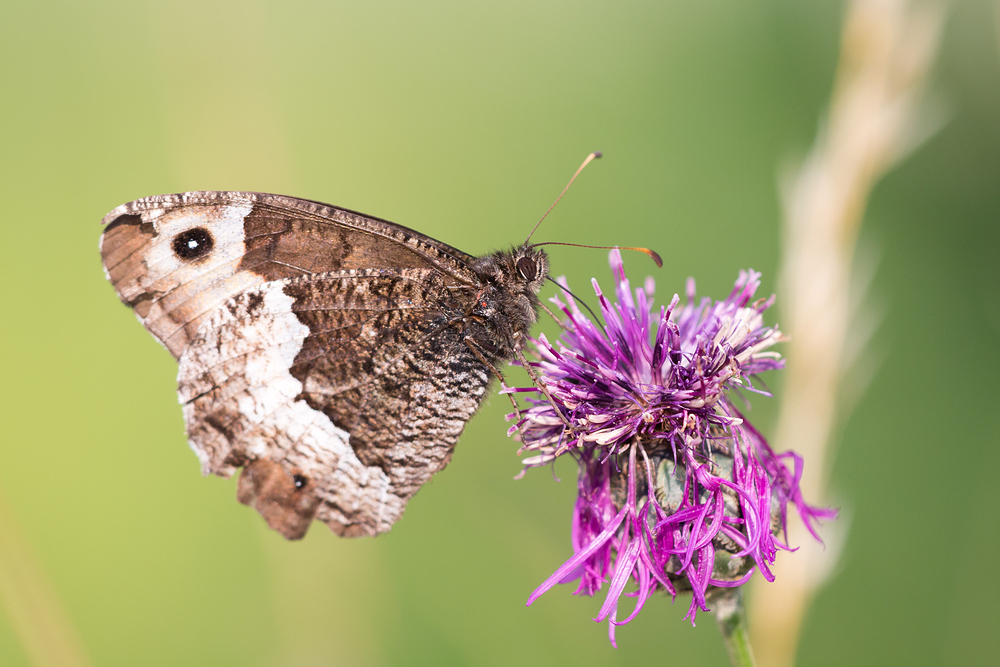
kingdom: Animalia
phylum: Arthropoda
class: Insecta
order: Lepidoptera
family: Nymphalidae
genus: Hipparchia
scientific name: Hipparchia hermione
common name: Rock grayling
